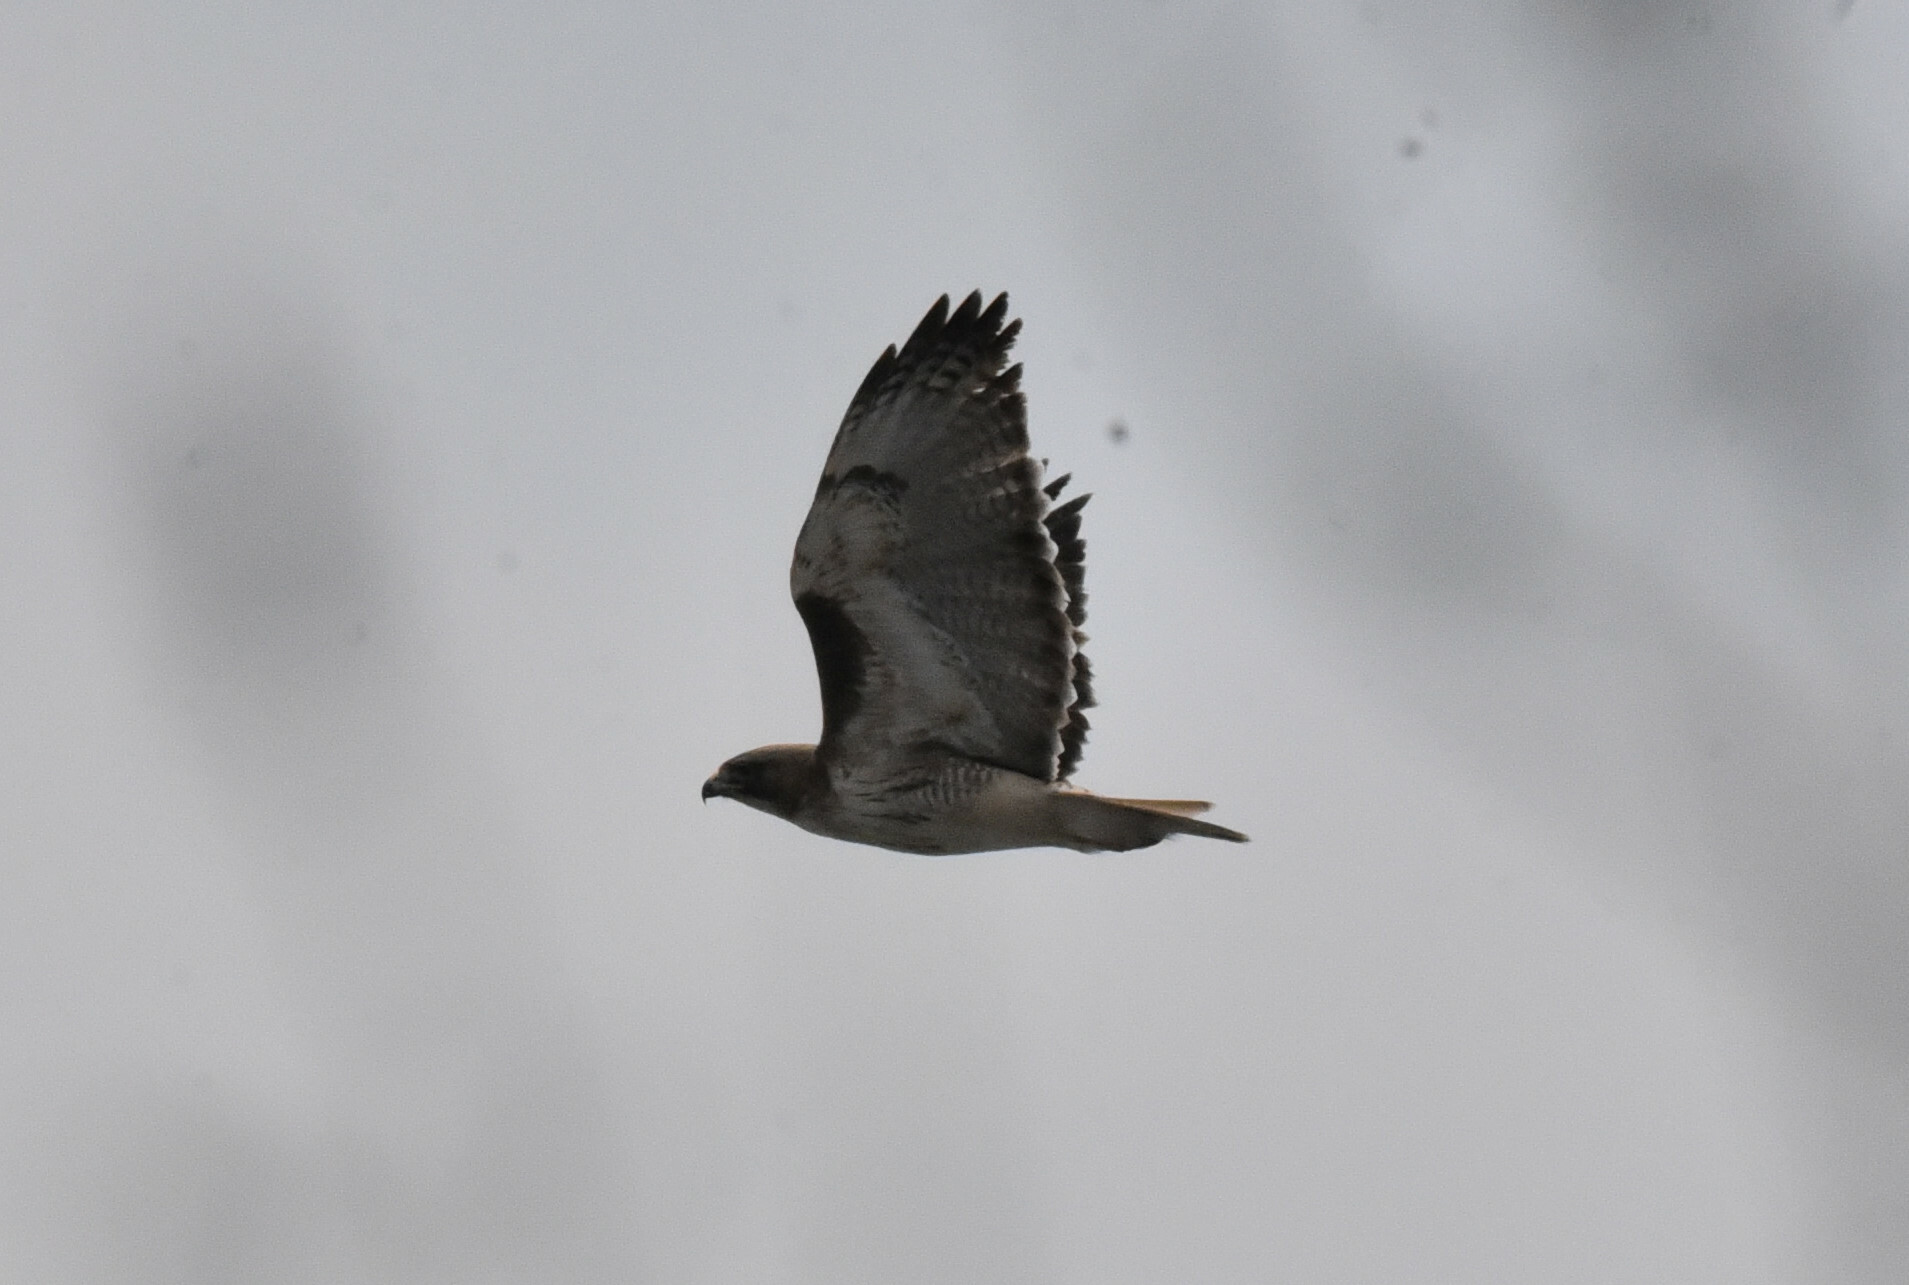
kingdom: Animalia
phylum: Chordata
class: Aves
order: Accipitriformes
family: Accipitridae
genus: Buteo
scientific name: Buteo jamaicensis
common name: Red-tailed hawk
